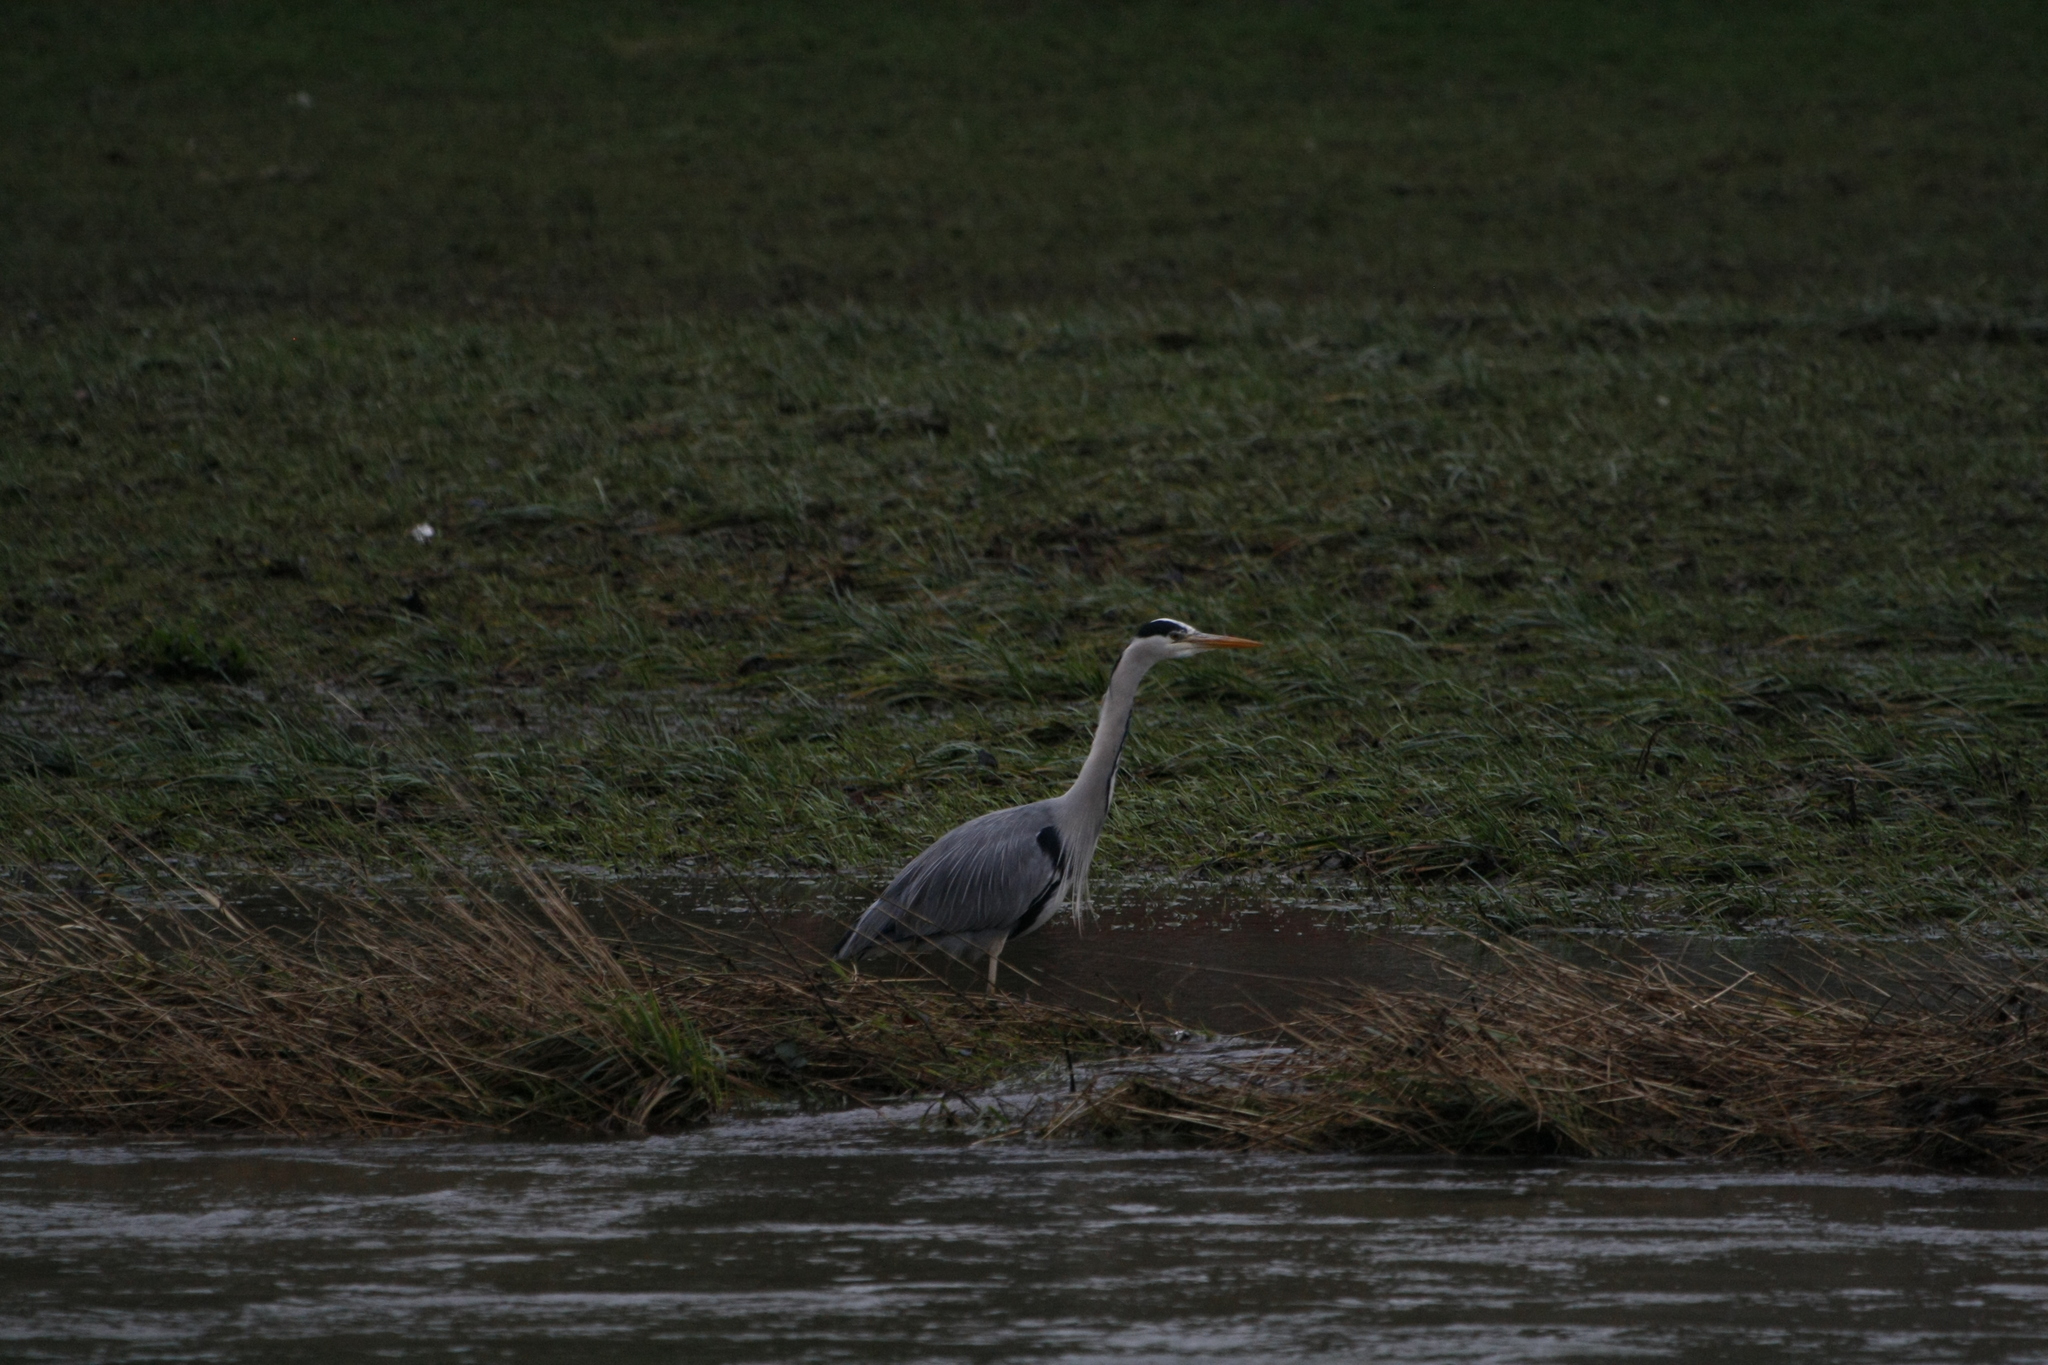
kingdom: Animalia
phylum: Chordata
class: Aves
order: Pelecaniformes
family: Ardeidae
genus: Ardea
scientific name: Ardea cinerea
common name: Grey heron
